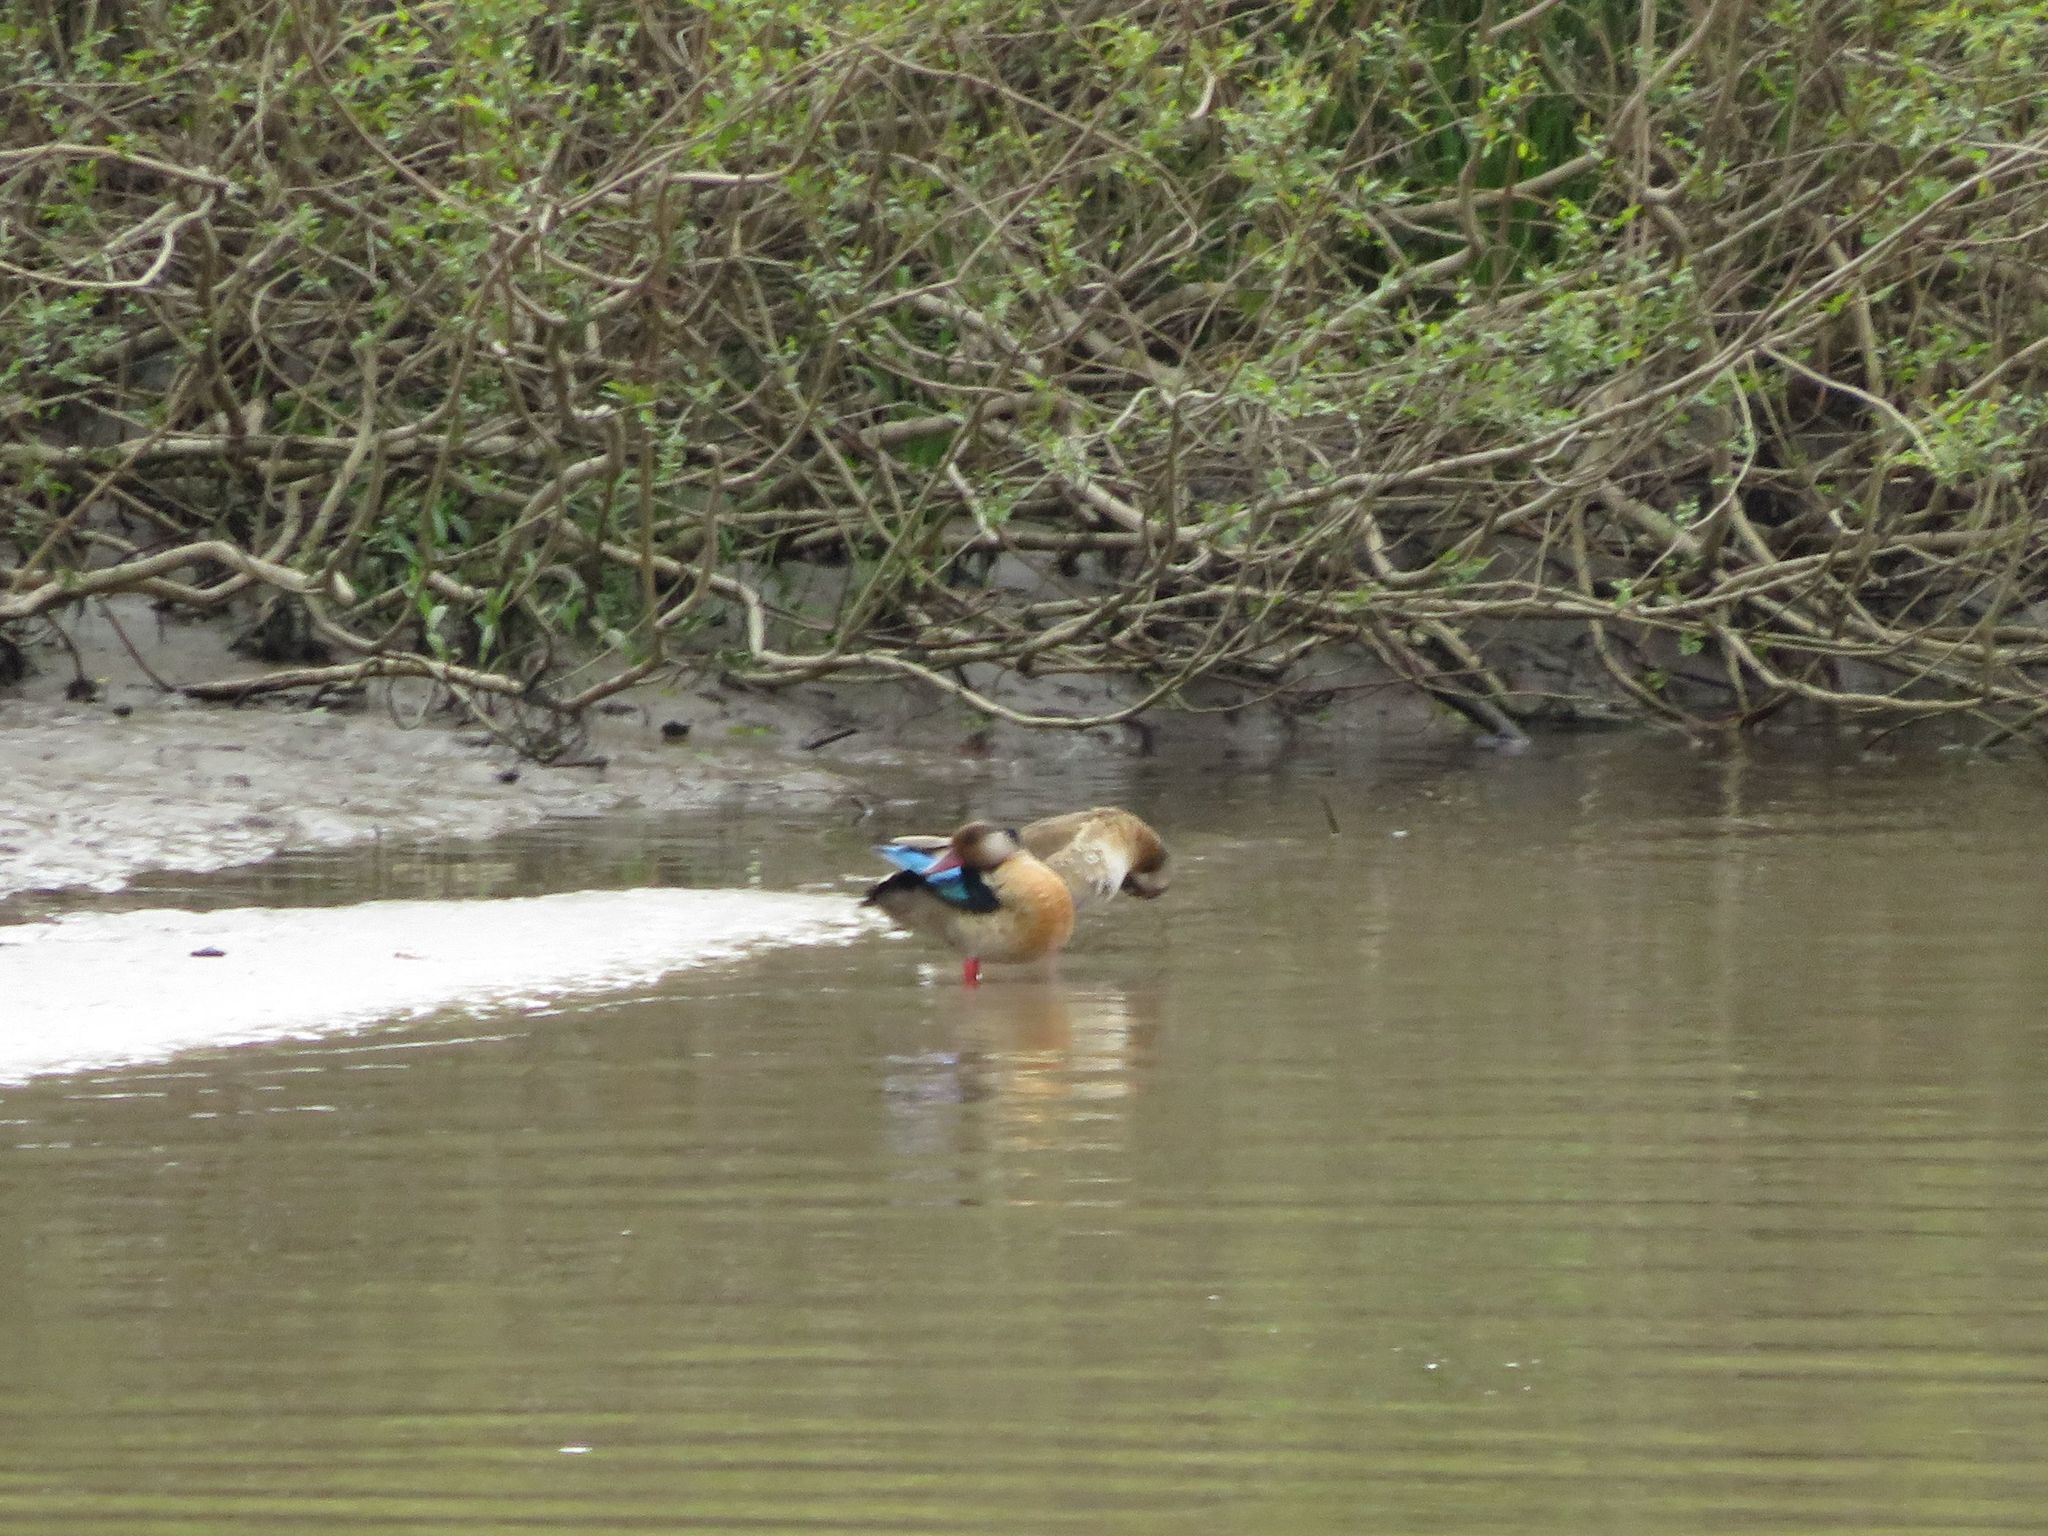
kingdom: Animalia
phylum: Chordata
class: Aves
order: Anseriformes
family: Anatidae
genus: Amazonetta
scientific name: Amazonetta brasiliensis
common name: Brazilian teal
